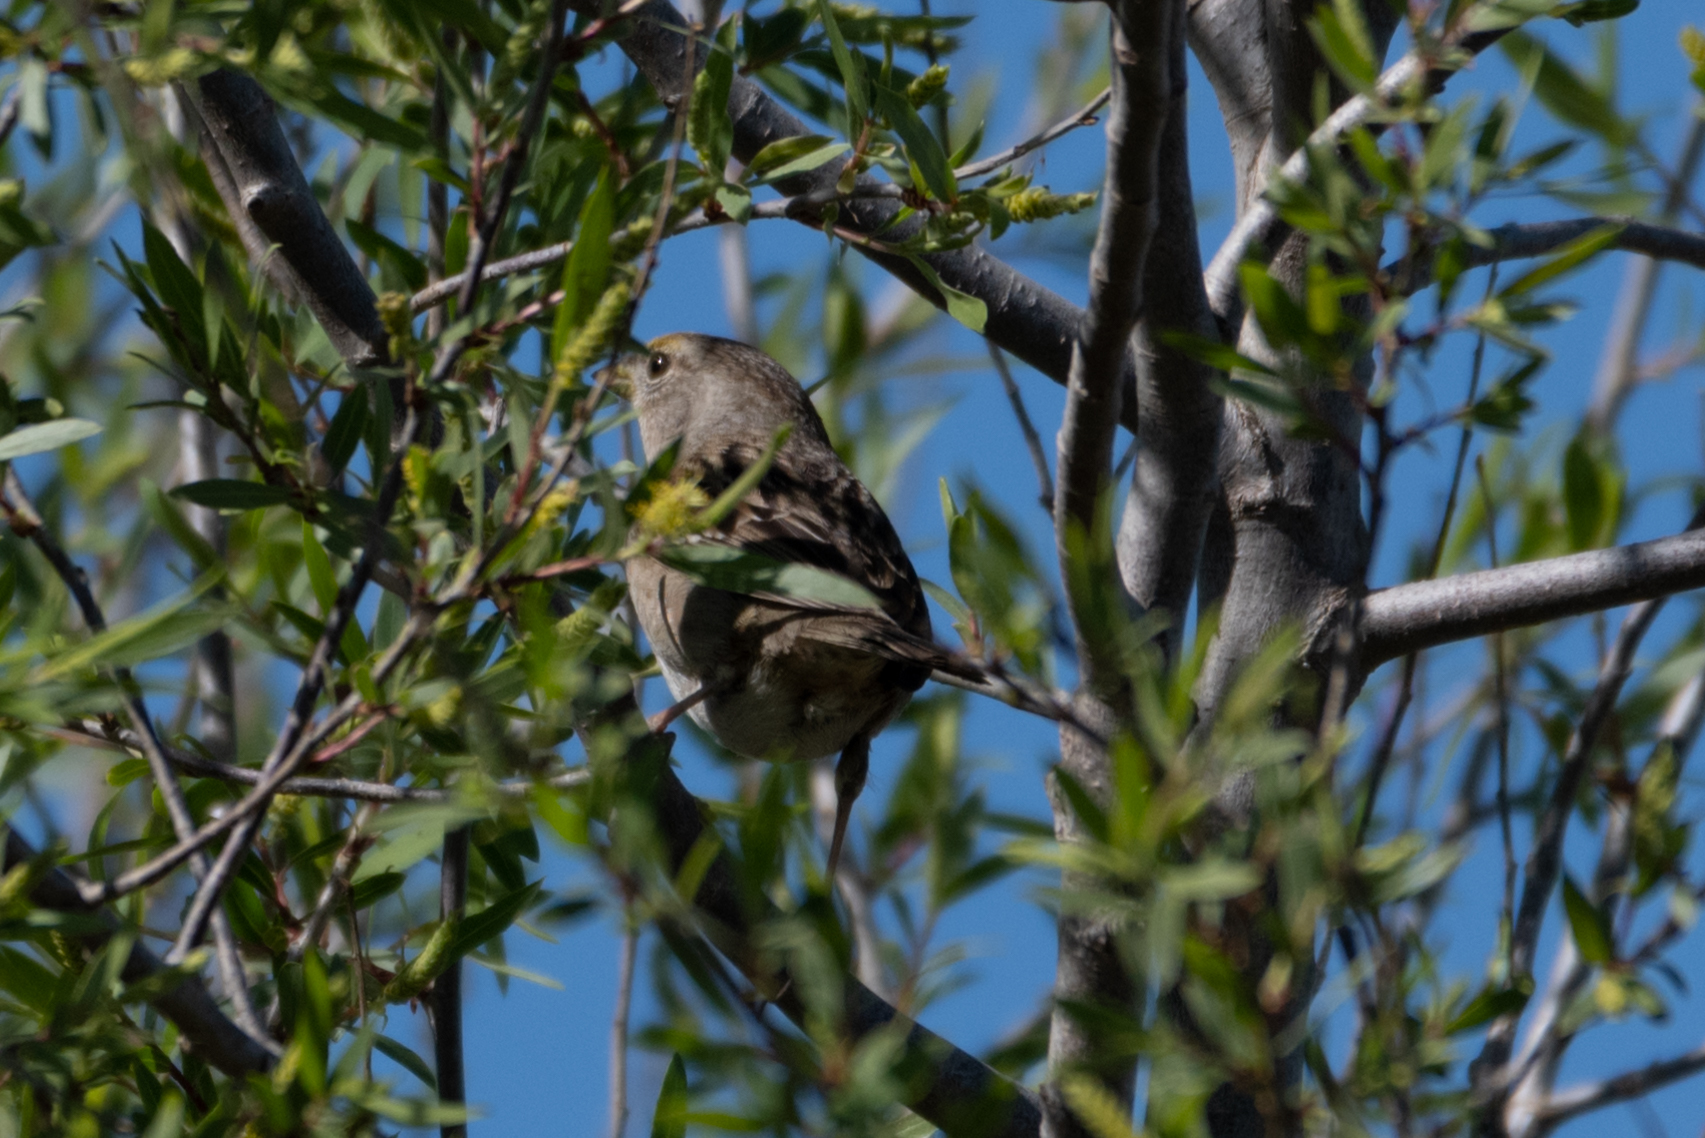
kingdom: Animalia
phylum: Chordata
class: Aves
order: Passeriformes
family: Passerellidae
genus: Zonotrichia
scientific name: Zonotrichia atricapilla
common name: Golden-crowned sparrow
